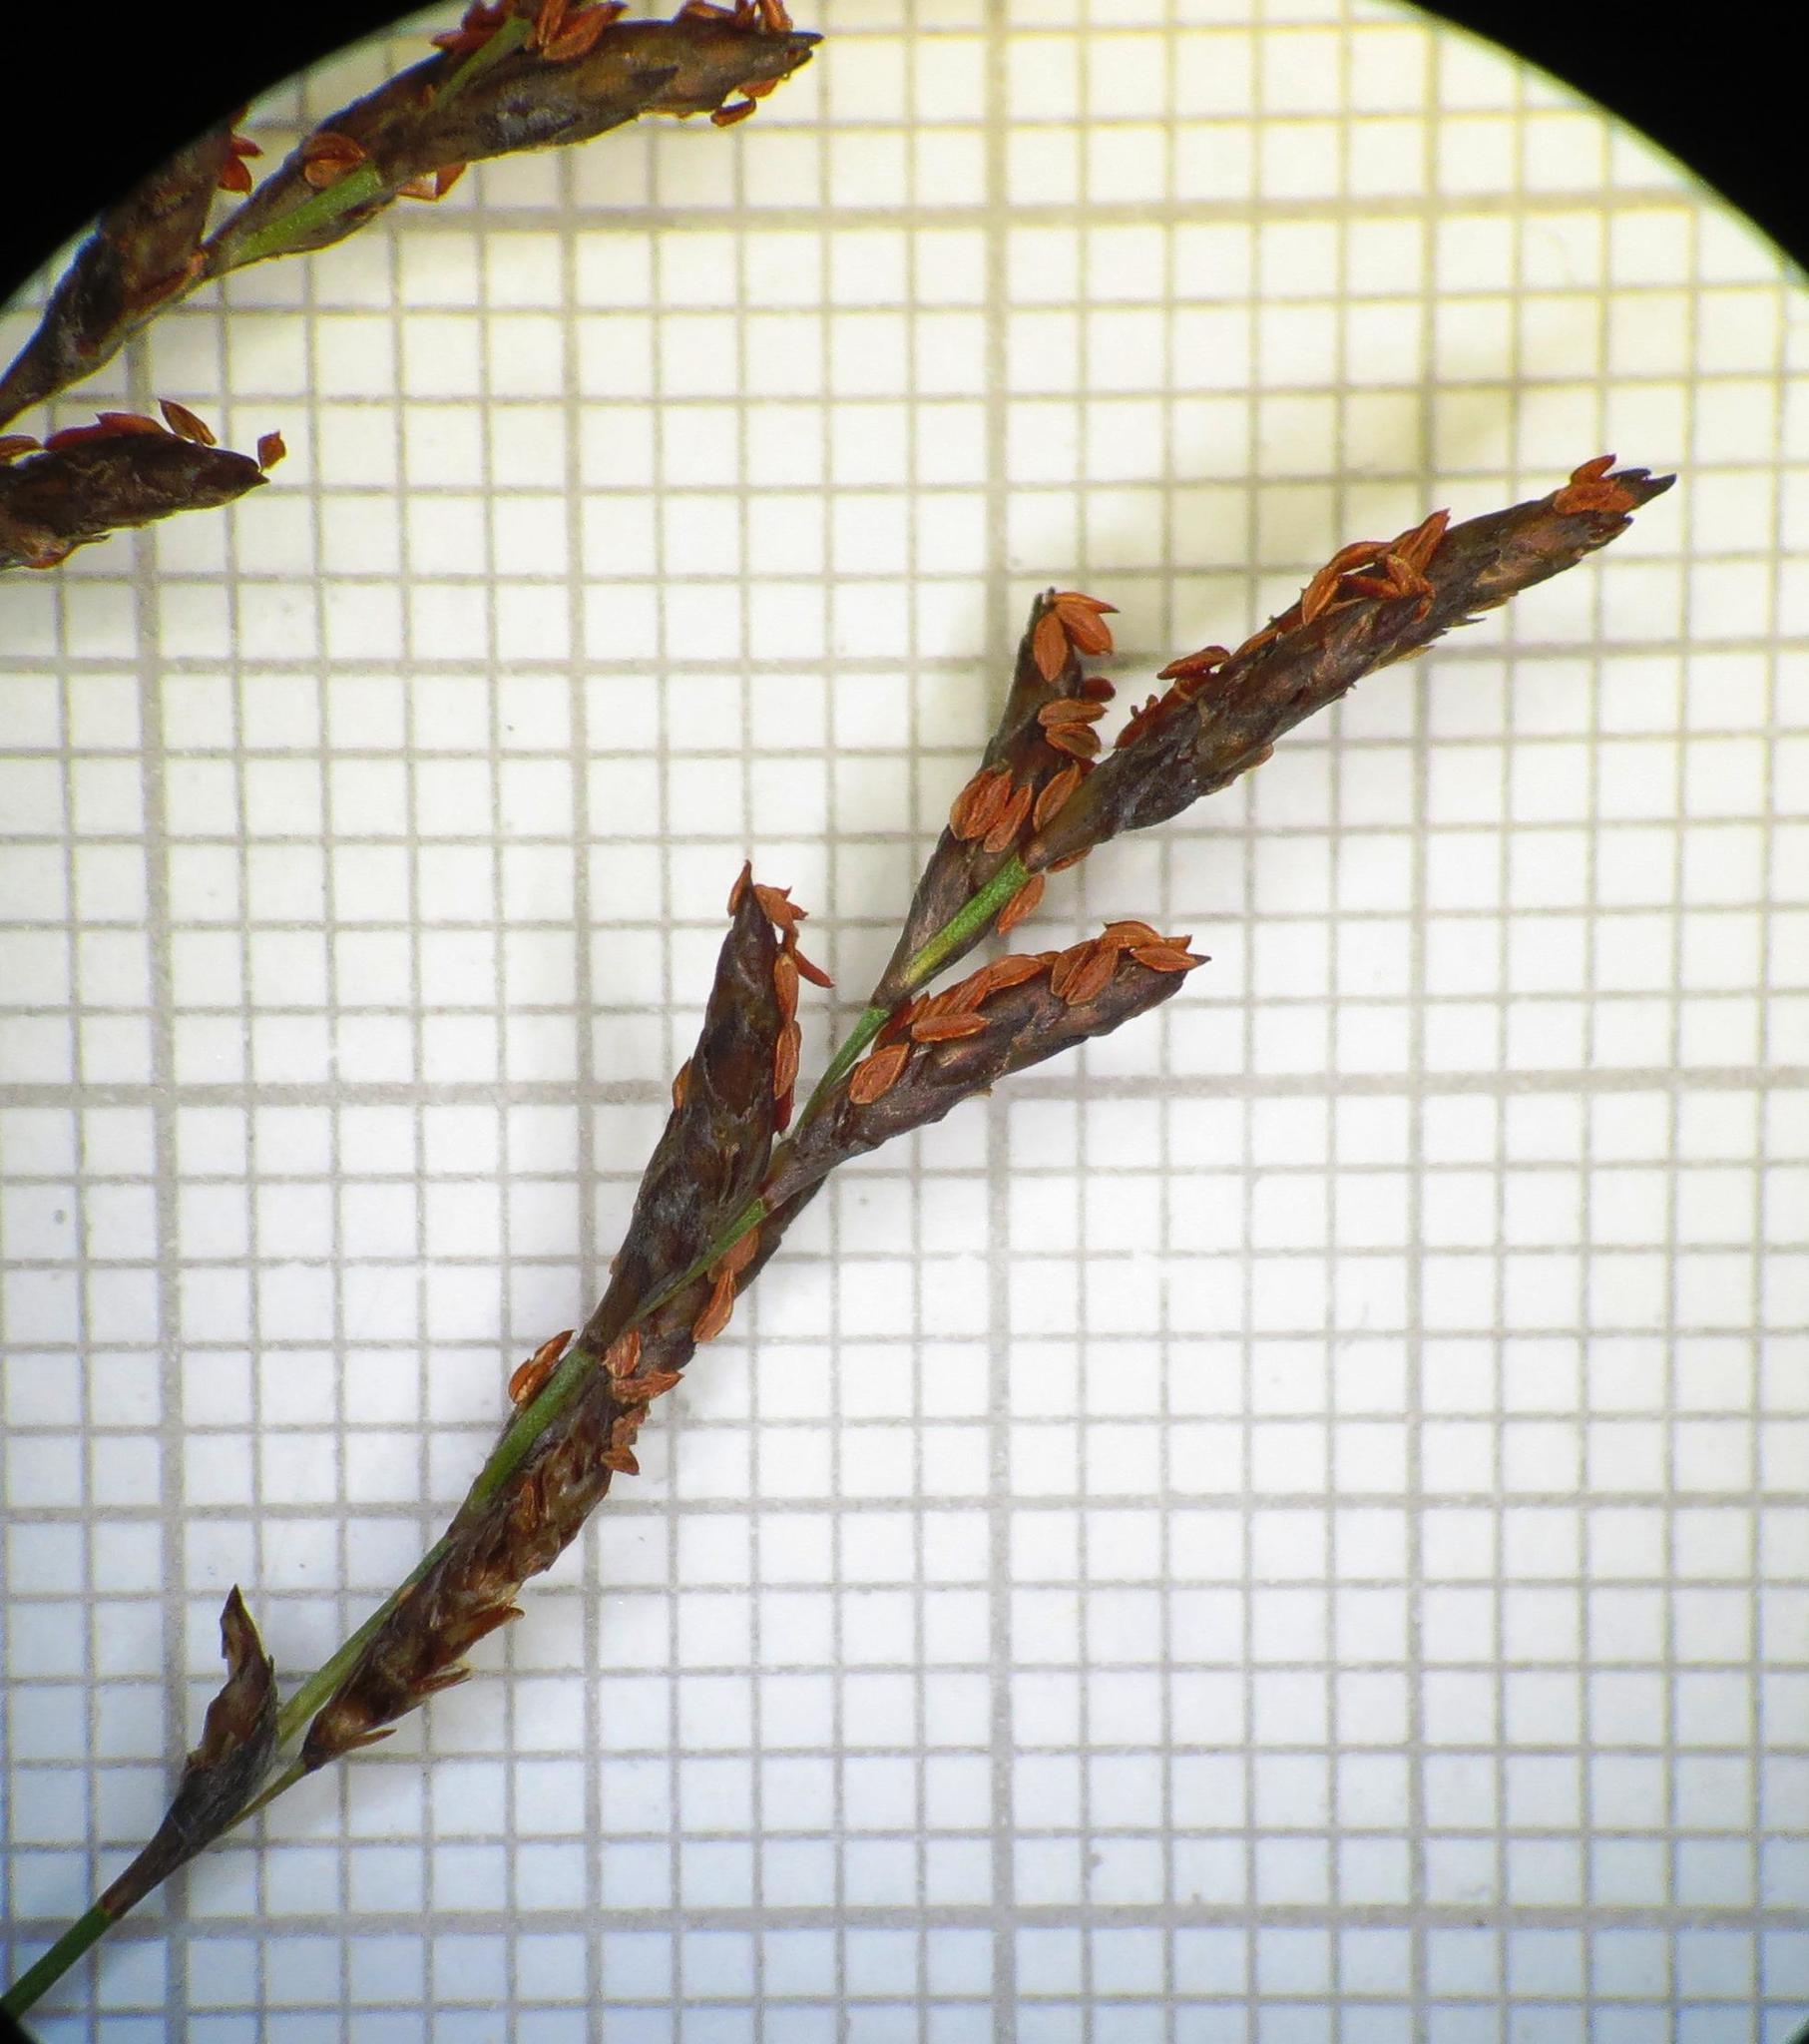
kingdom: Plantae
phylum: Tracheophyta
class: Liliopsida
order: Poales
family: Restionaceae
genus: Restio
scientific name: Restio subverticillatus
